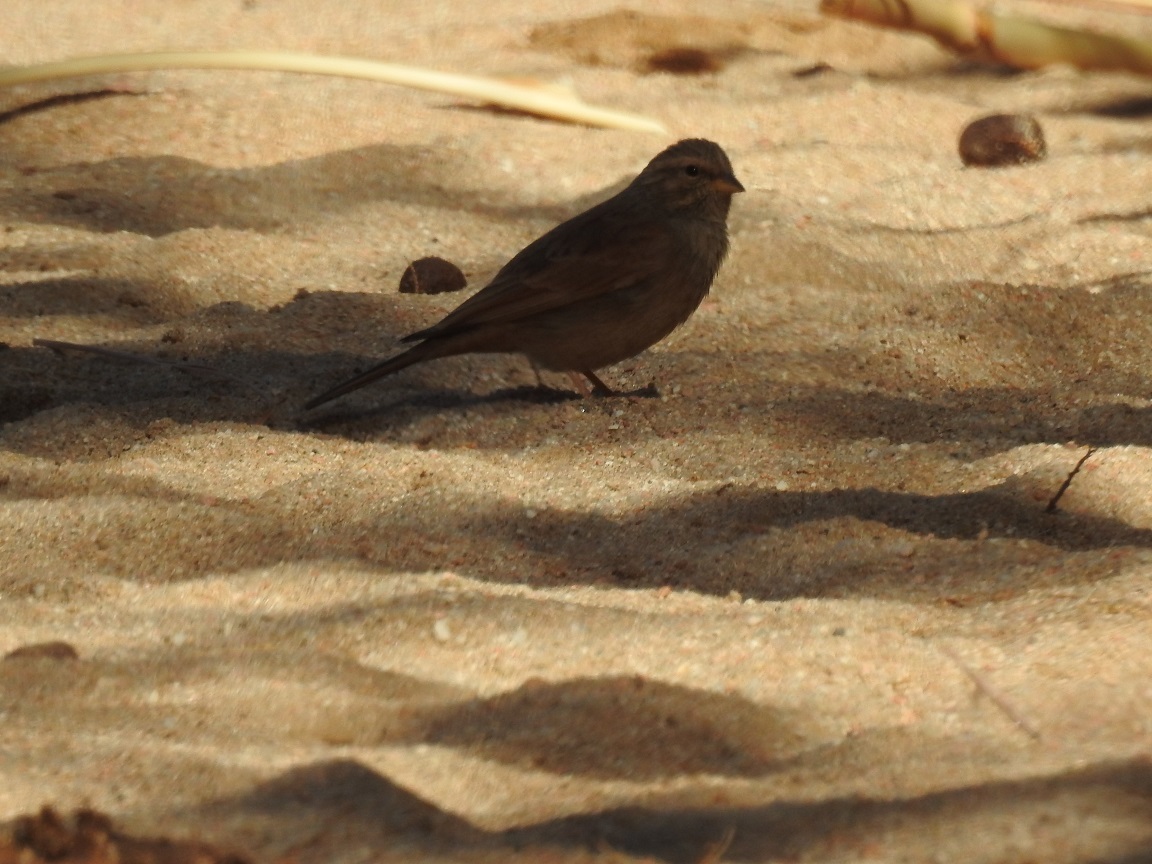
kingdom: Animalia
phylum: Chordata
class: Aves
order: Passeriformes
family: Emberizidae
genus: Emberiza
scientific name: Emberiza sahari
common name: House bunting
